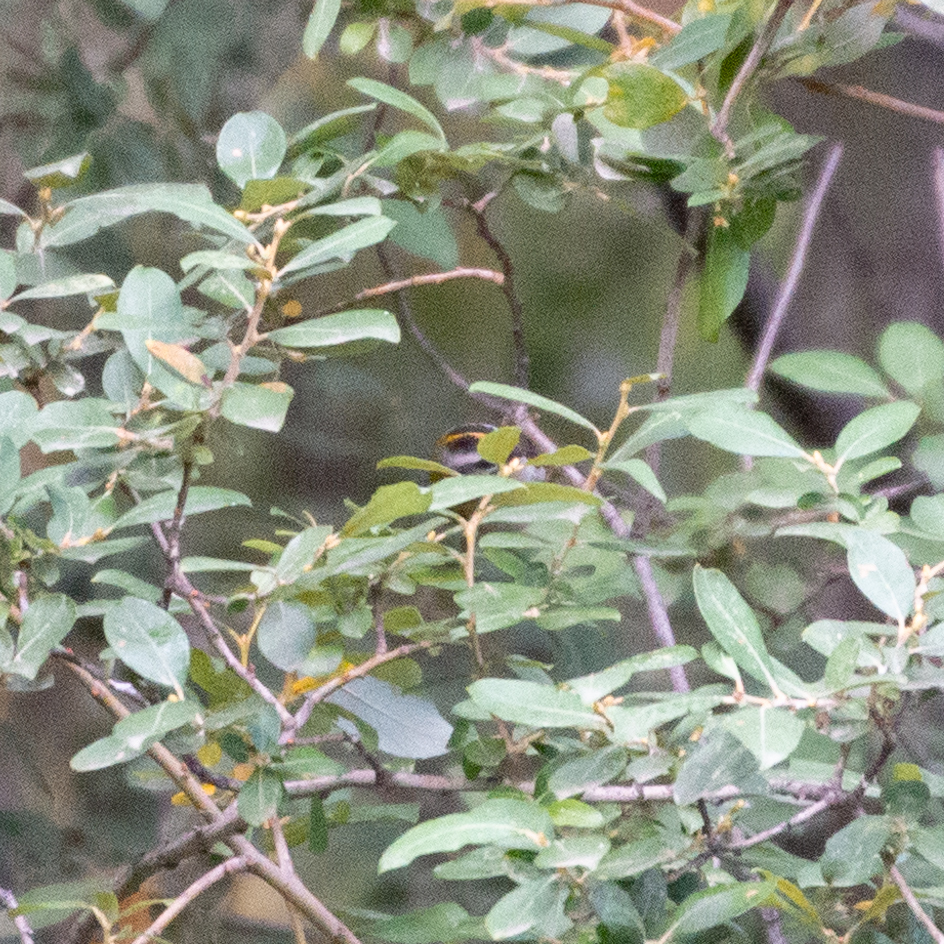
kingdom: Animalia
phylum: Chordata
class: Aves
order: Passeriformes
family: Regulidae
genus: Regulus
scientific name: Regulus ignicapilla
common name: Firecrest
